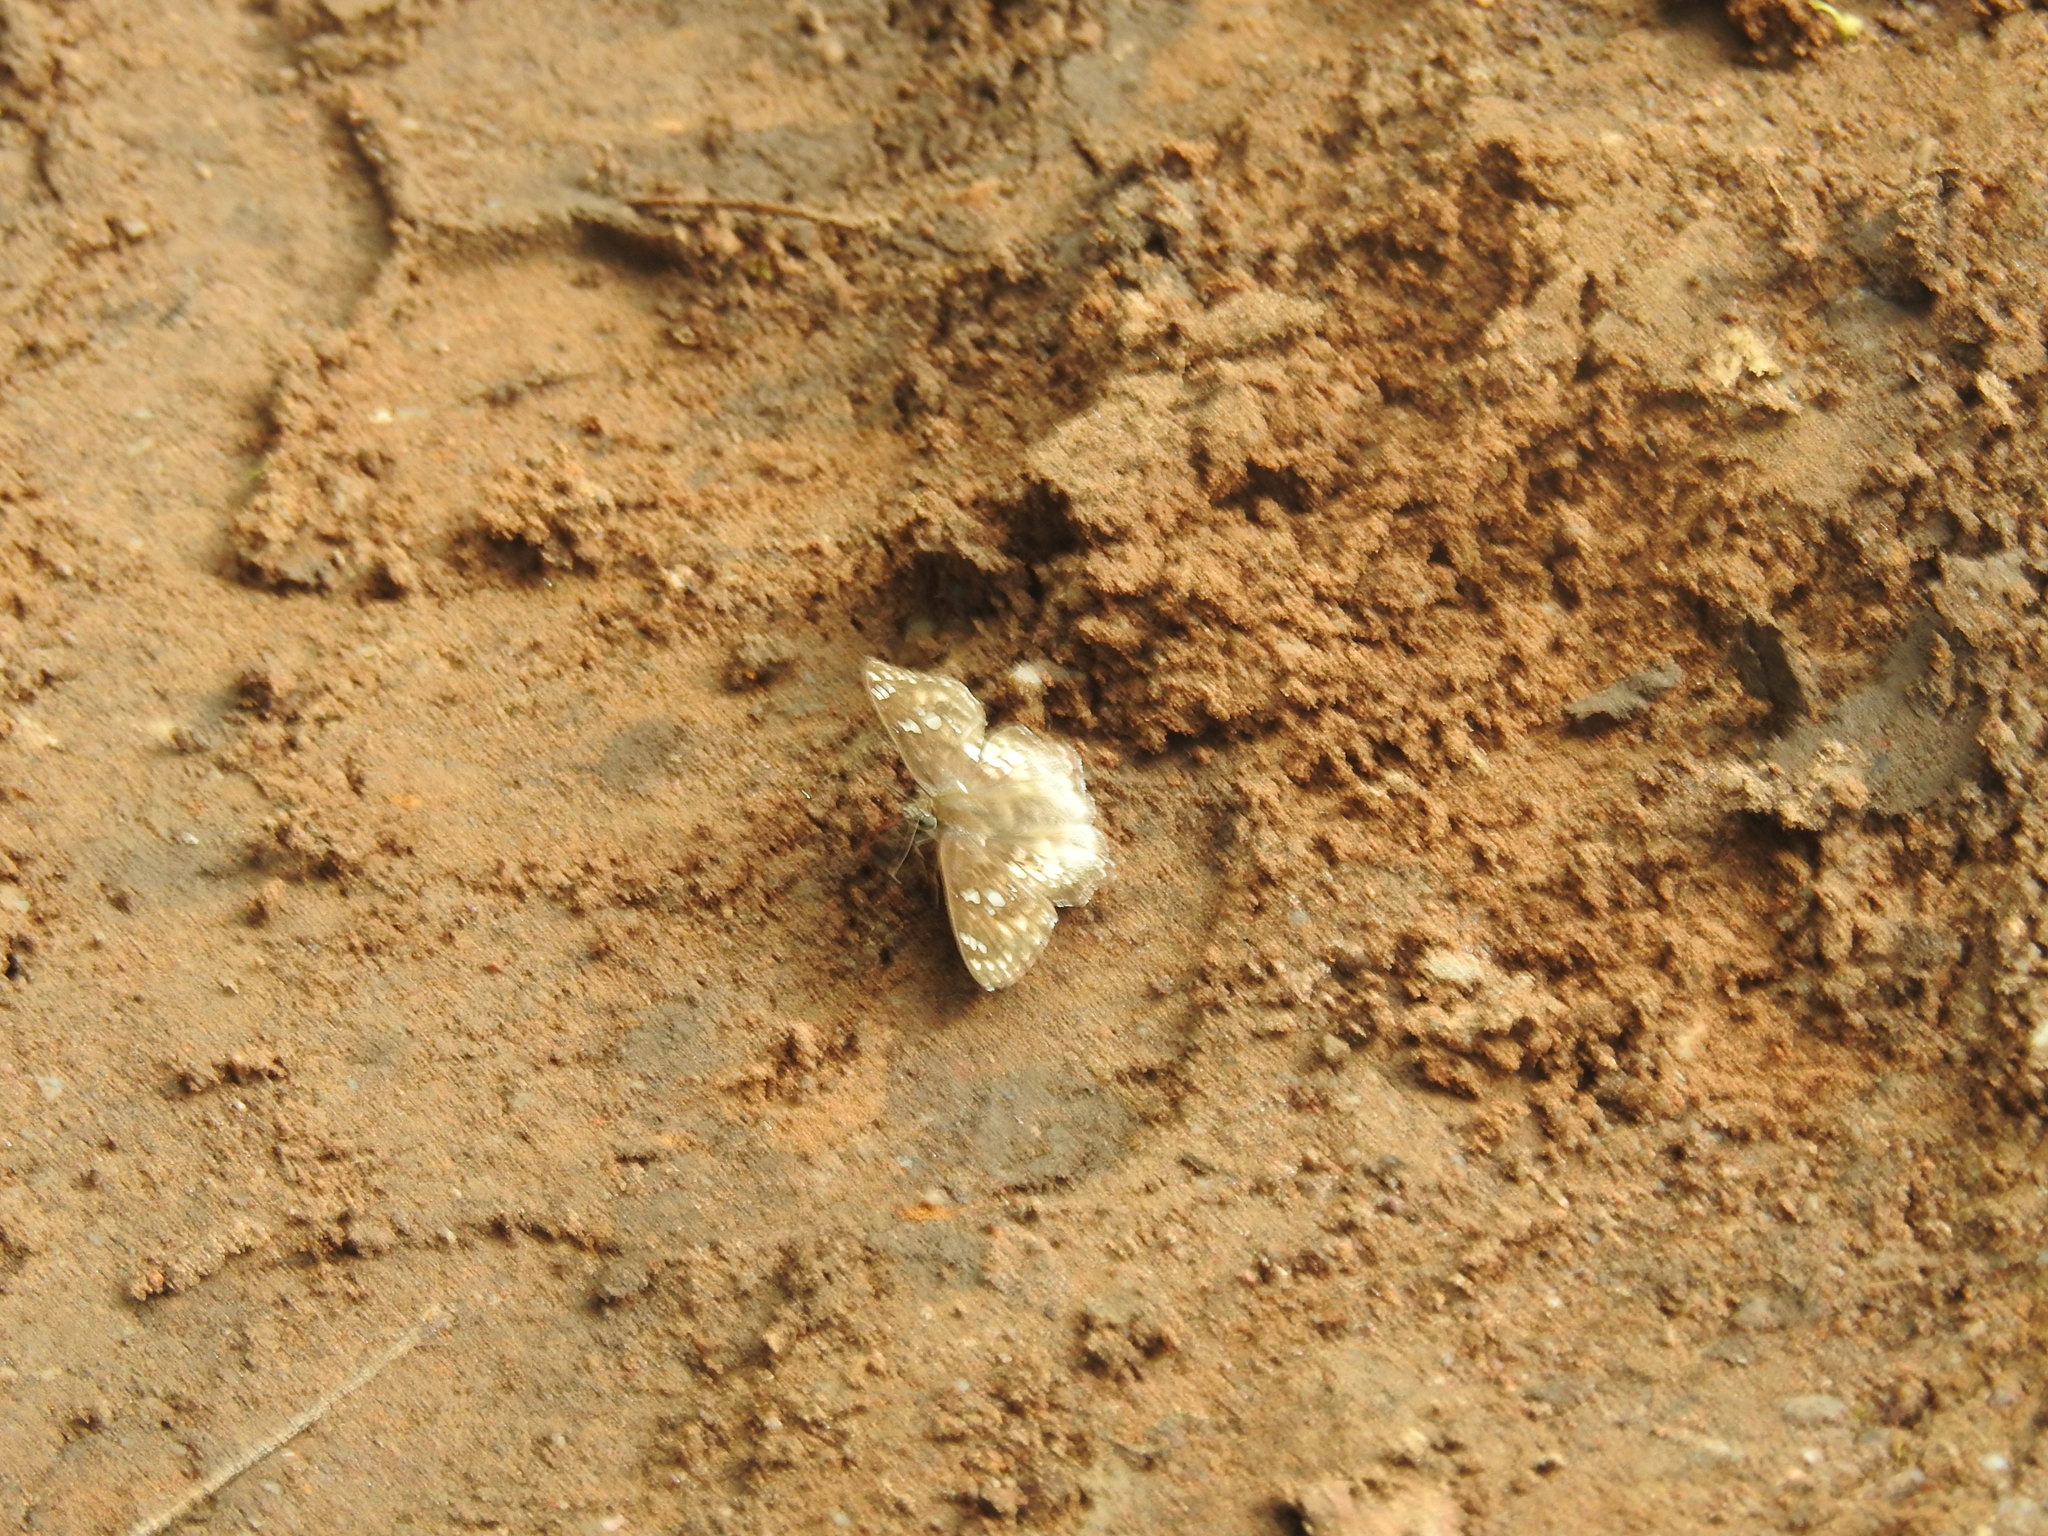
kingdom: Animalia
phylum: Arthropoda
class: Insecta
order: Lepidoptera
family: Hesperiidae
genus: Caprona
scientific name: Caprona ransonnettii
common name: Golden angle
